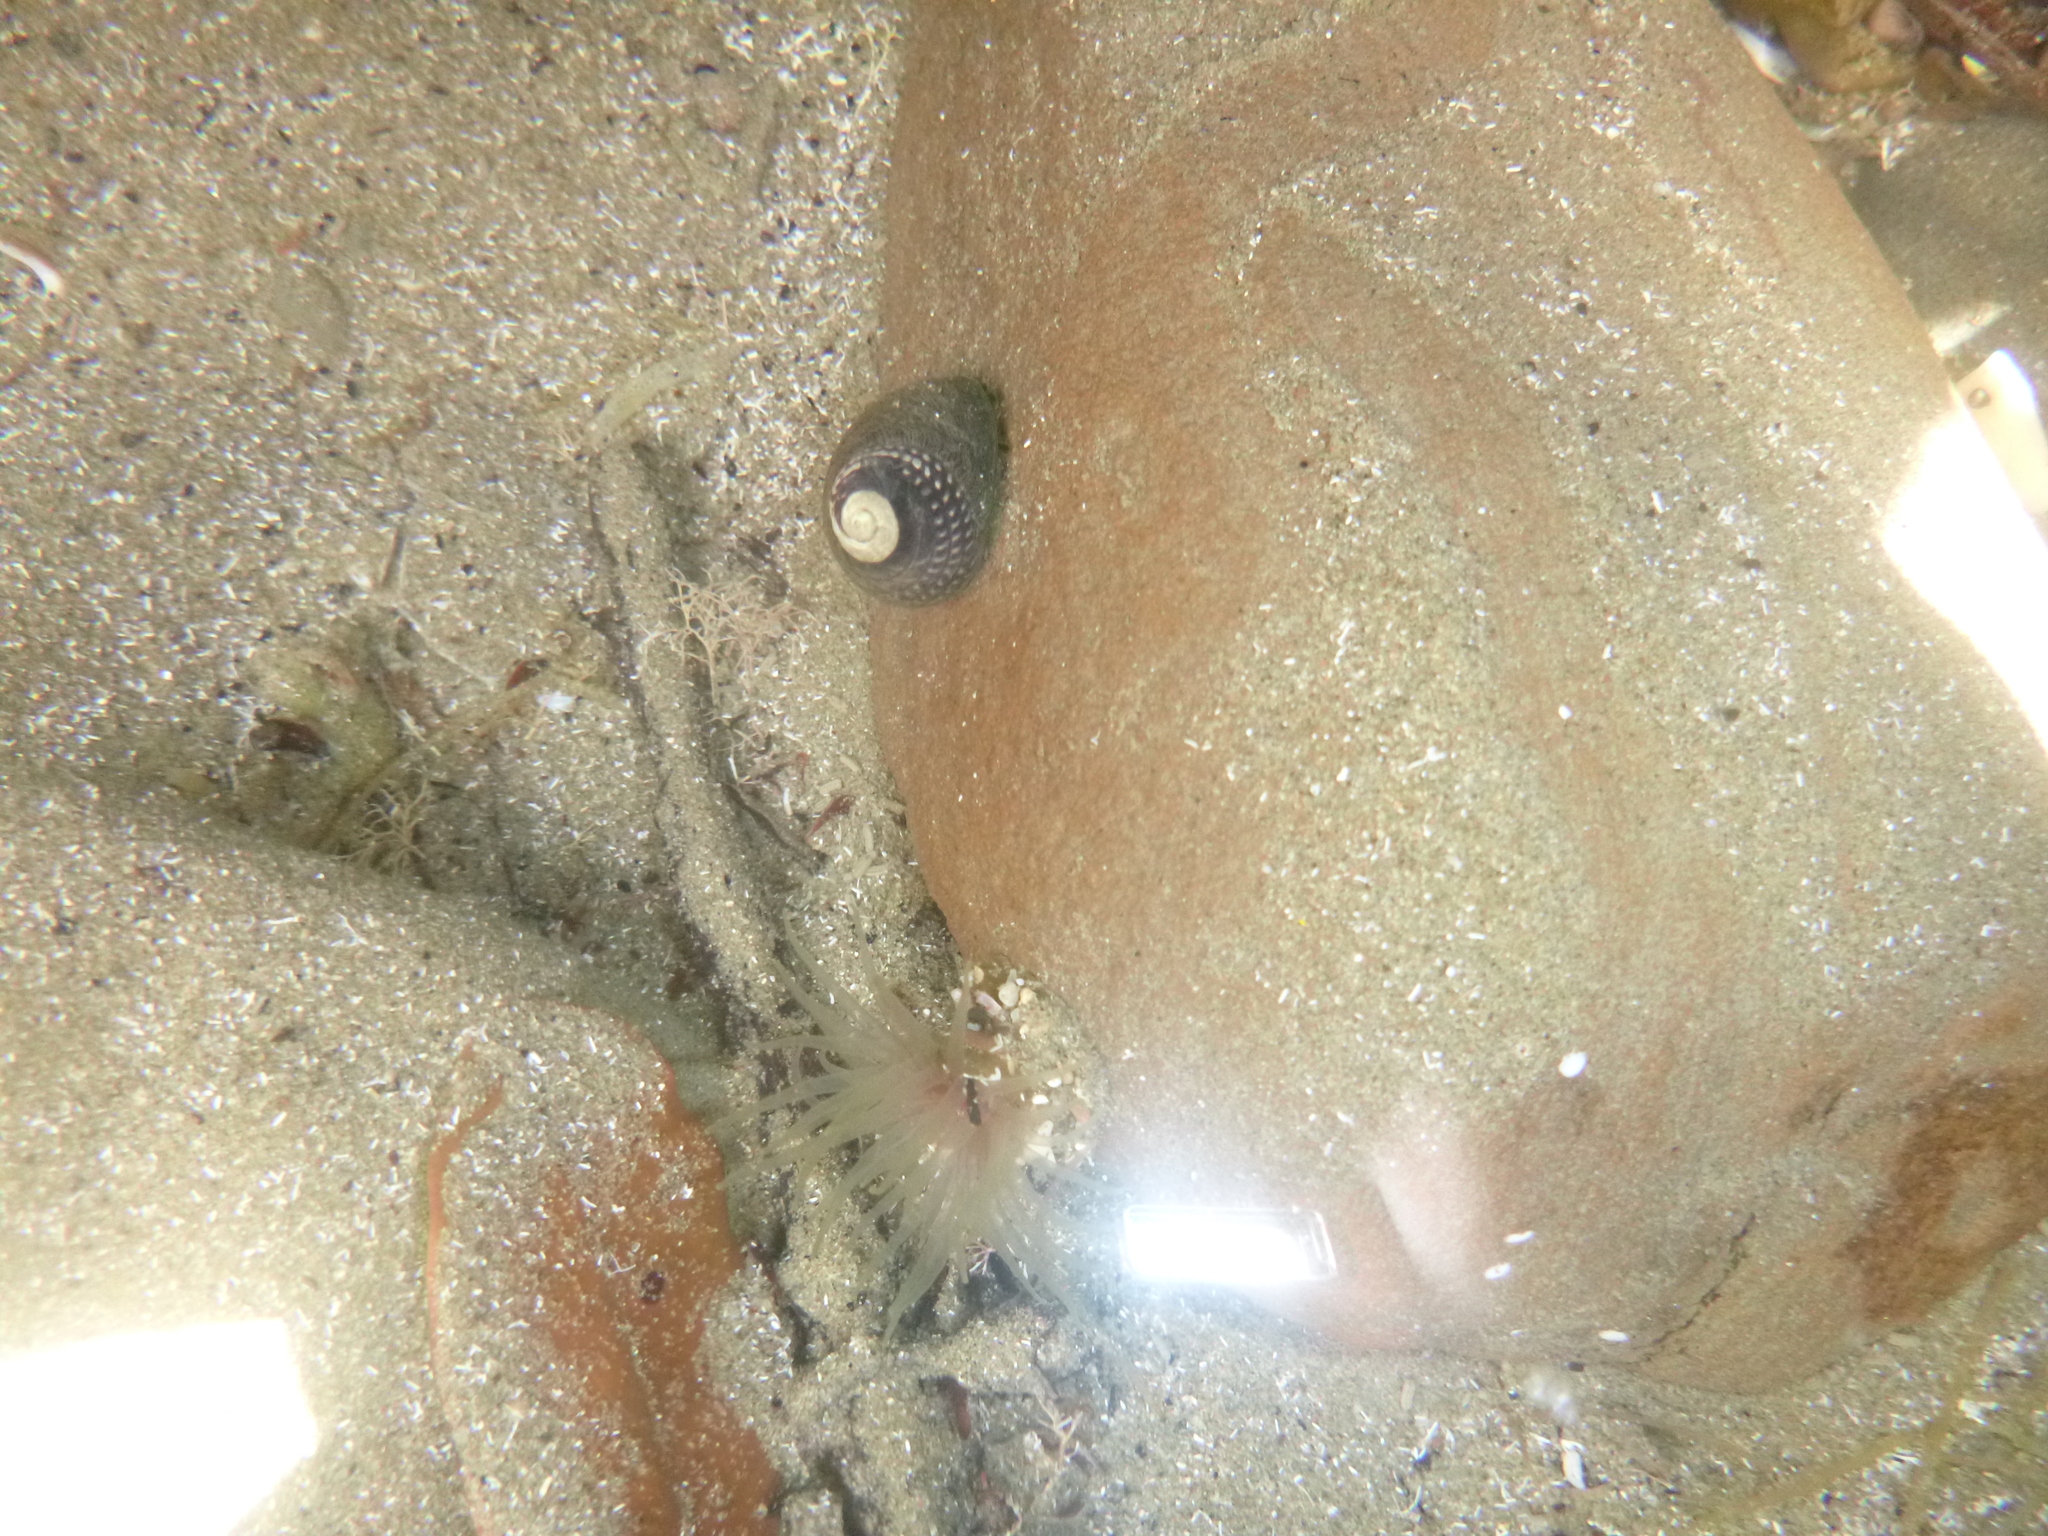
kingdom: Animalia
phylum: Mollusca
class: Gastropoda
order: Trochida
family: Trochidae
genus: Diloma
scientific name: Diloma aethiops
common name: Scorched monodont
